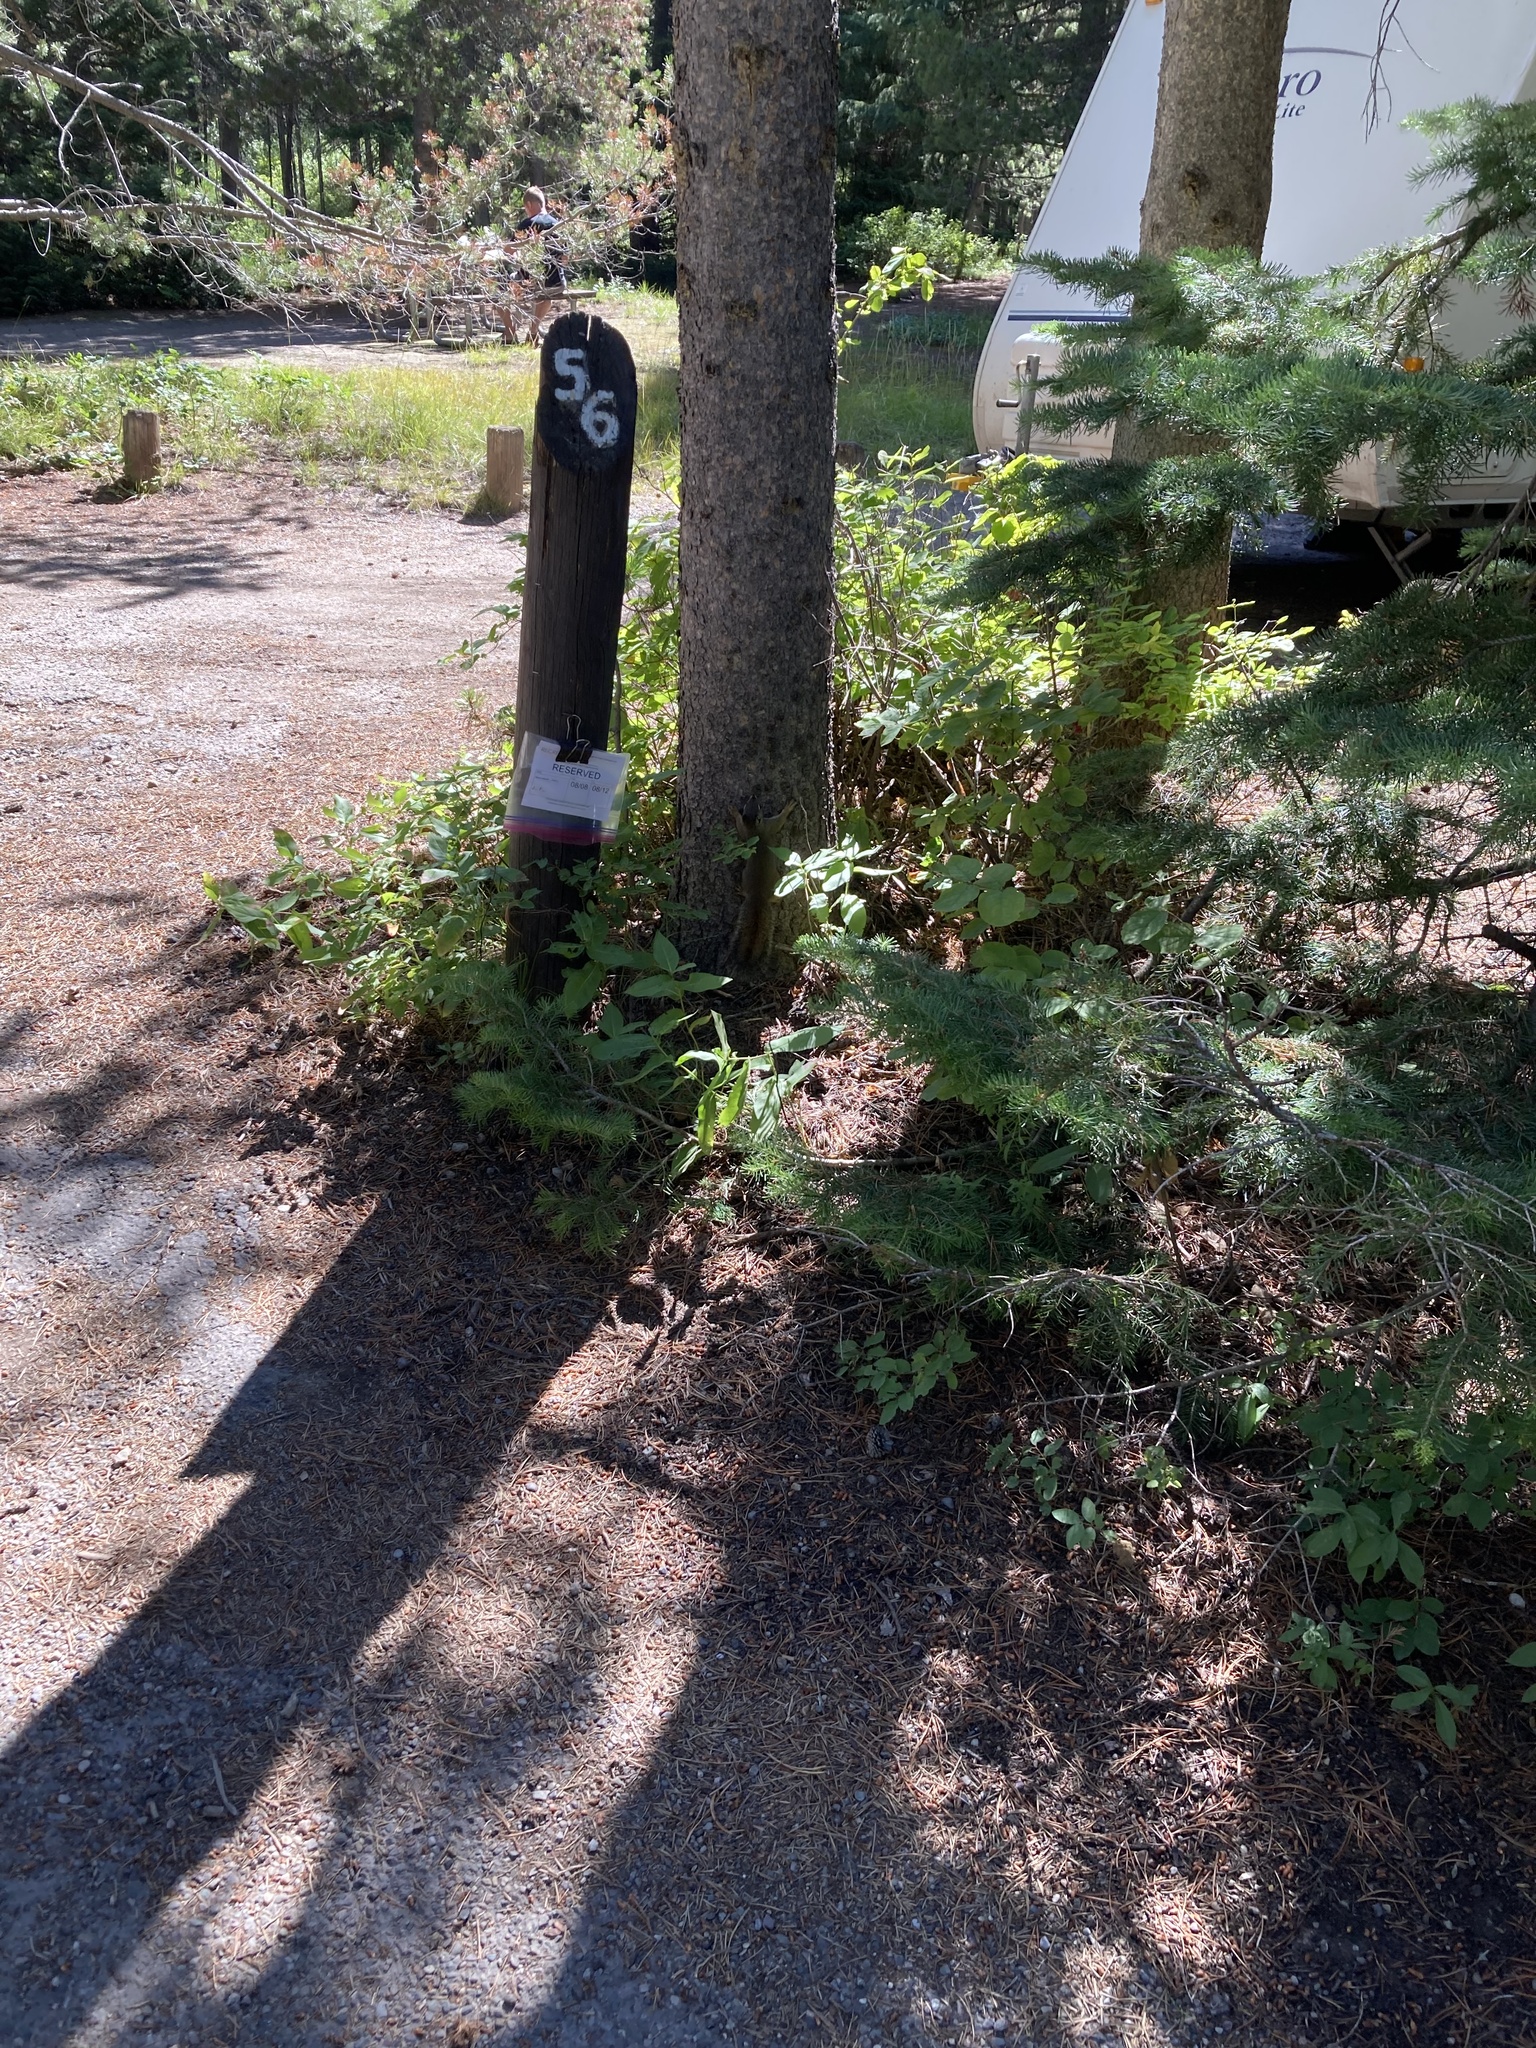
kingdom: Animalia
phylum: Chordata
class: Mammalia
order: Rodentia
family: Sciuridae
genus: Tamiasciurus
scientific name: Tamiasciurus hudsonicus
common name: Red squirrel
